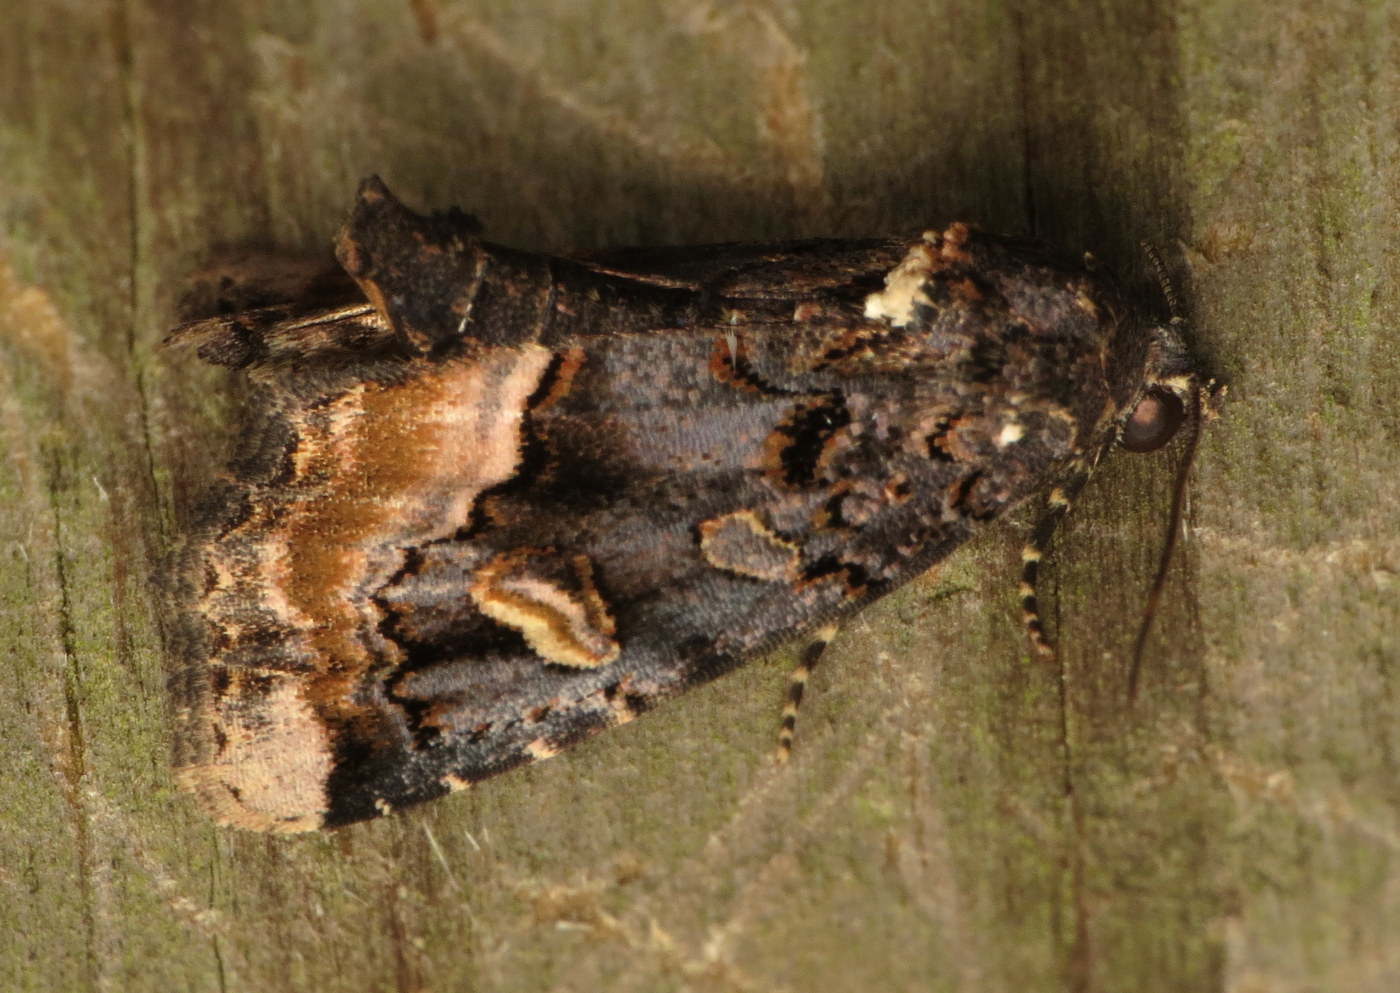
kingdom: Animalia
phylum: Arthropoda
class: Insecta
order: Lepidoptera
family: Noctuidae
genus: Homophoberia
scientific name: Homophoberia apicosa
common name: Black wedge-spot
